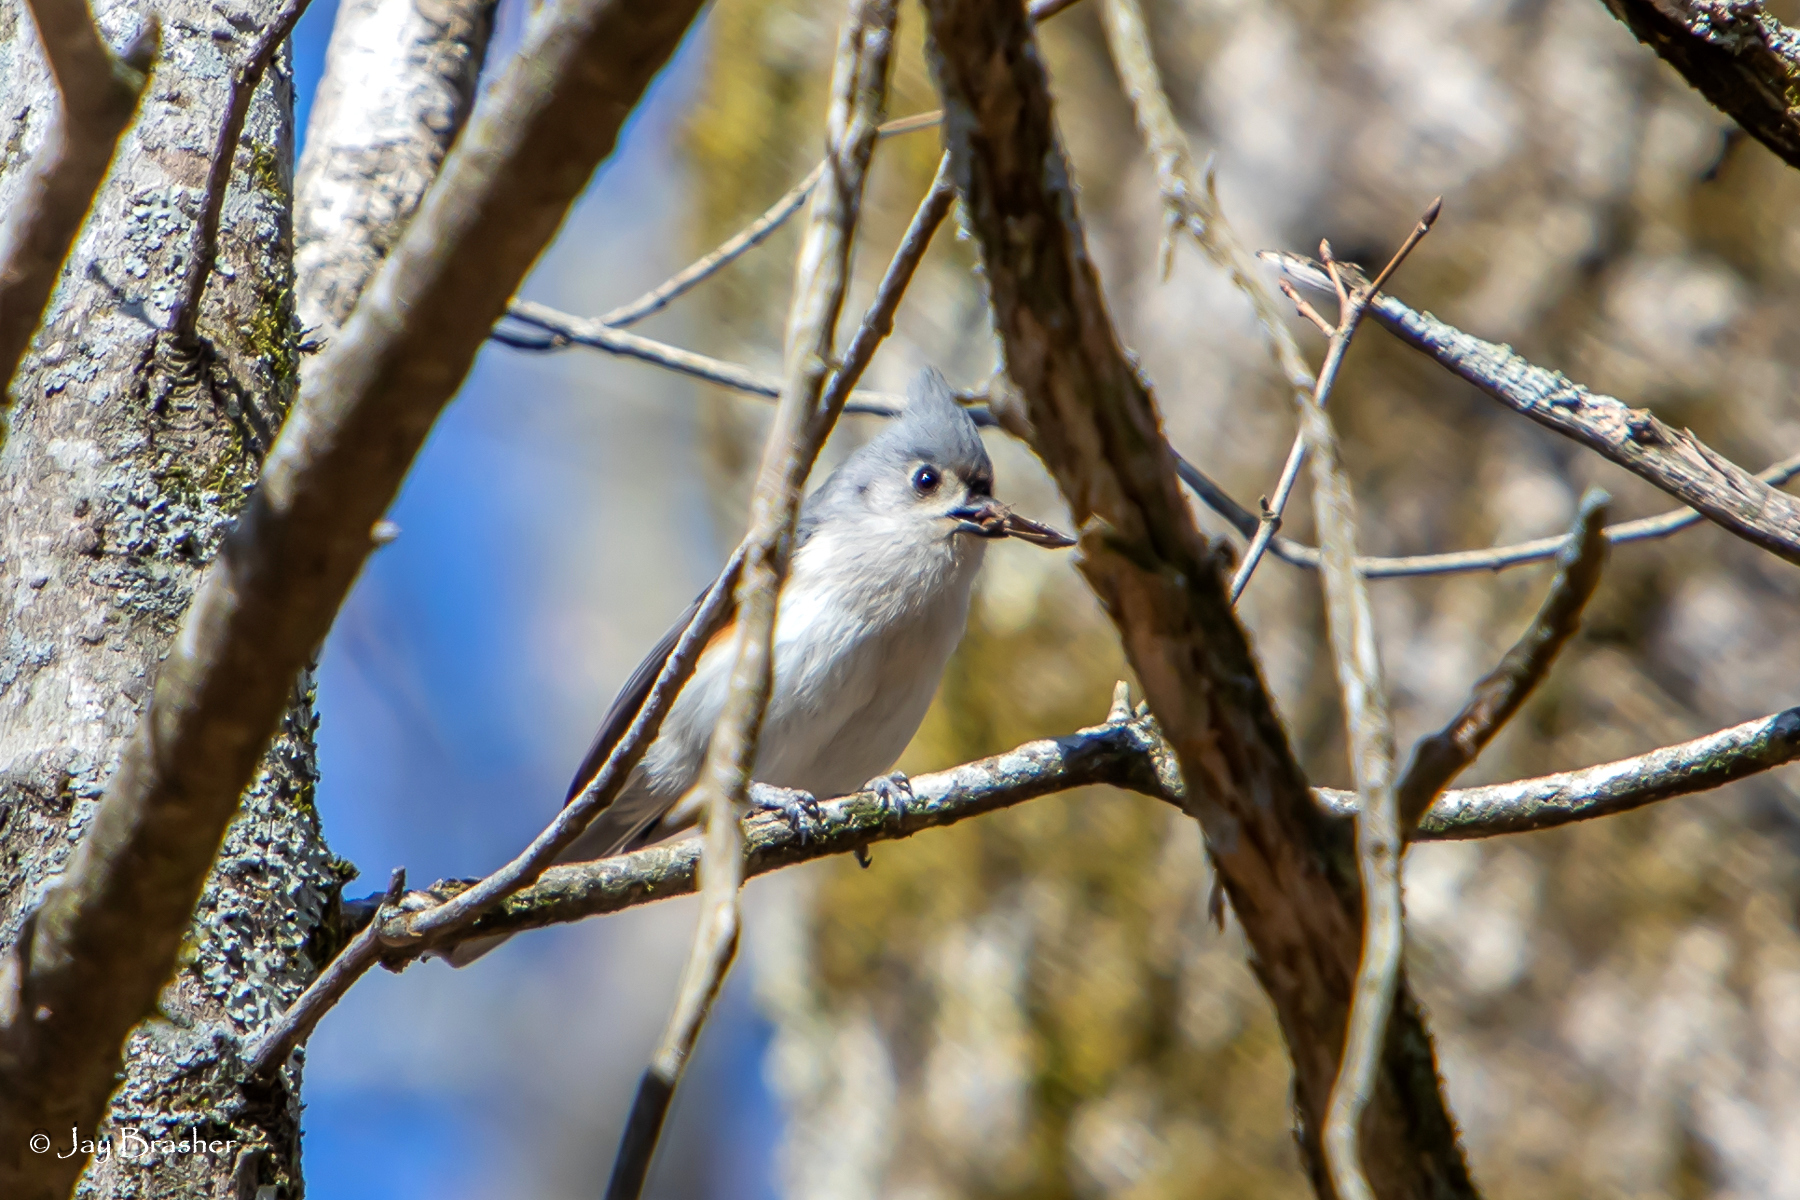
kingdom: Animalia
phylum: Chordata
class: Aves
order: Passeriformes
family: Paridae
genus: Baeolophus
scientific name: Baeolophus bicolor
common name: Tufted titmouse
